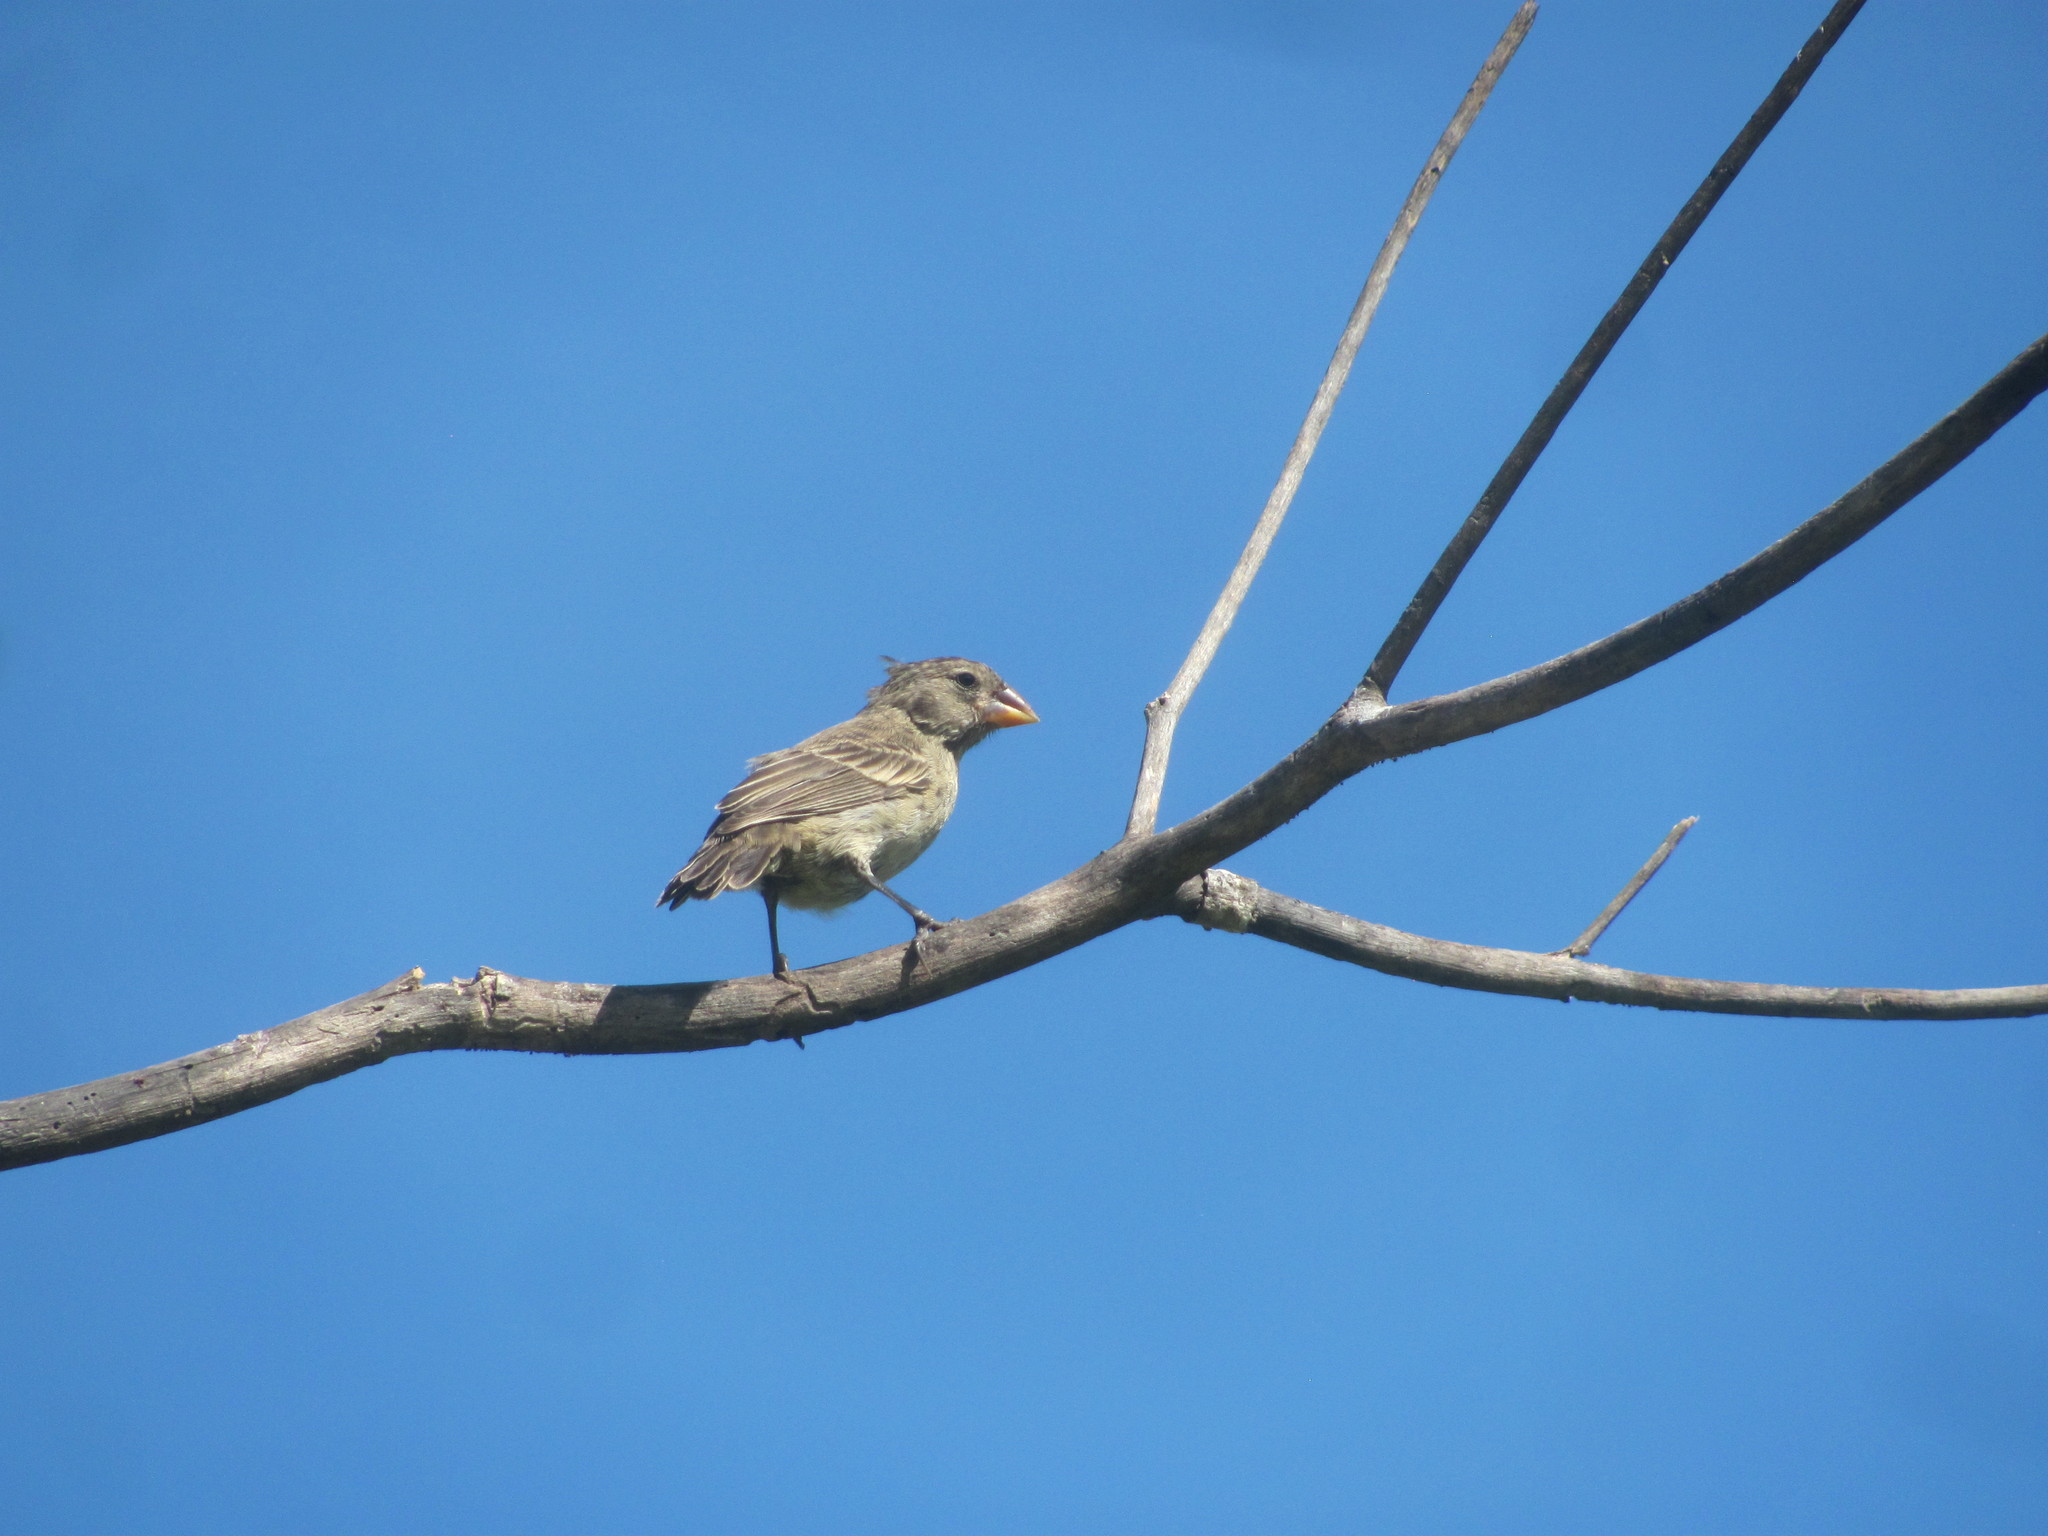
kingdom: Animalia
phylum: Chordata
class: Aves
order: Passeriformes
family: Thraupidae
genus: Geospiza
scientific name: Geospiza fuliginosa
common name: Small ground finch
